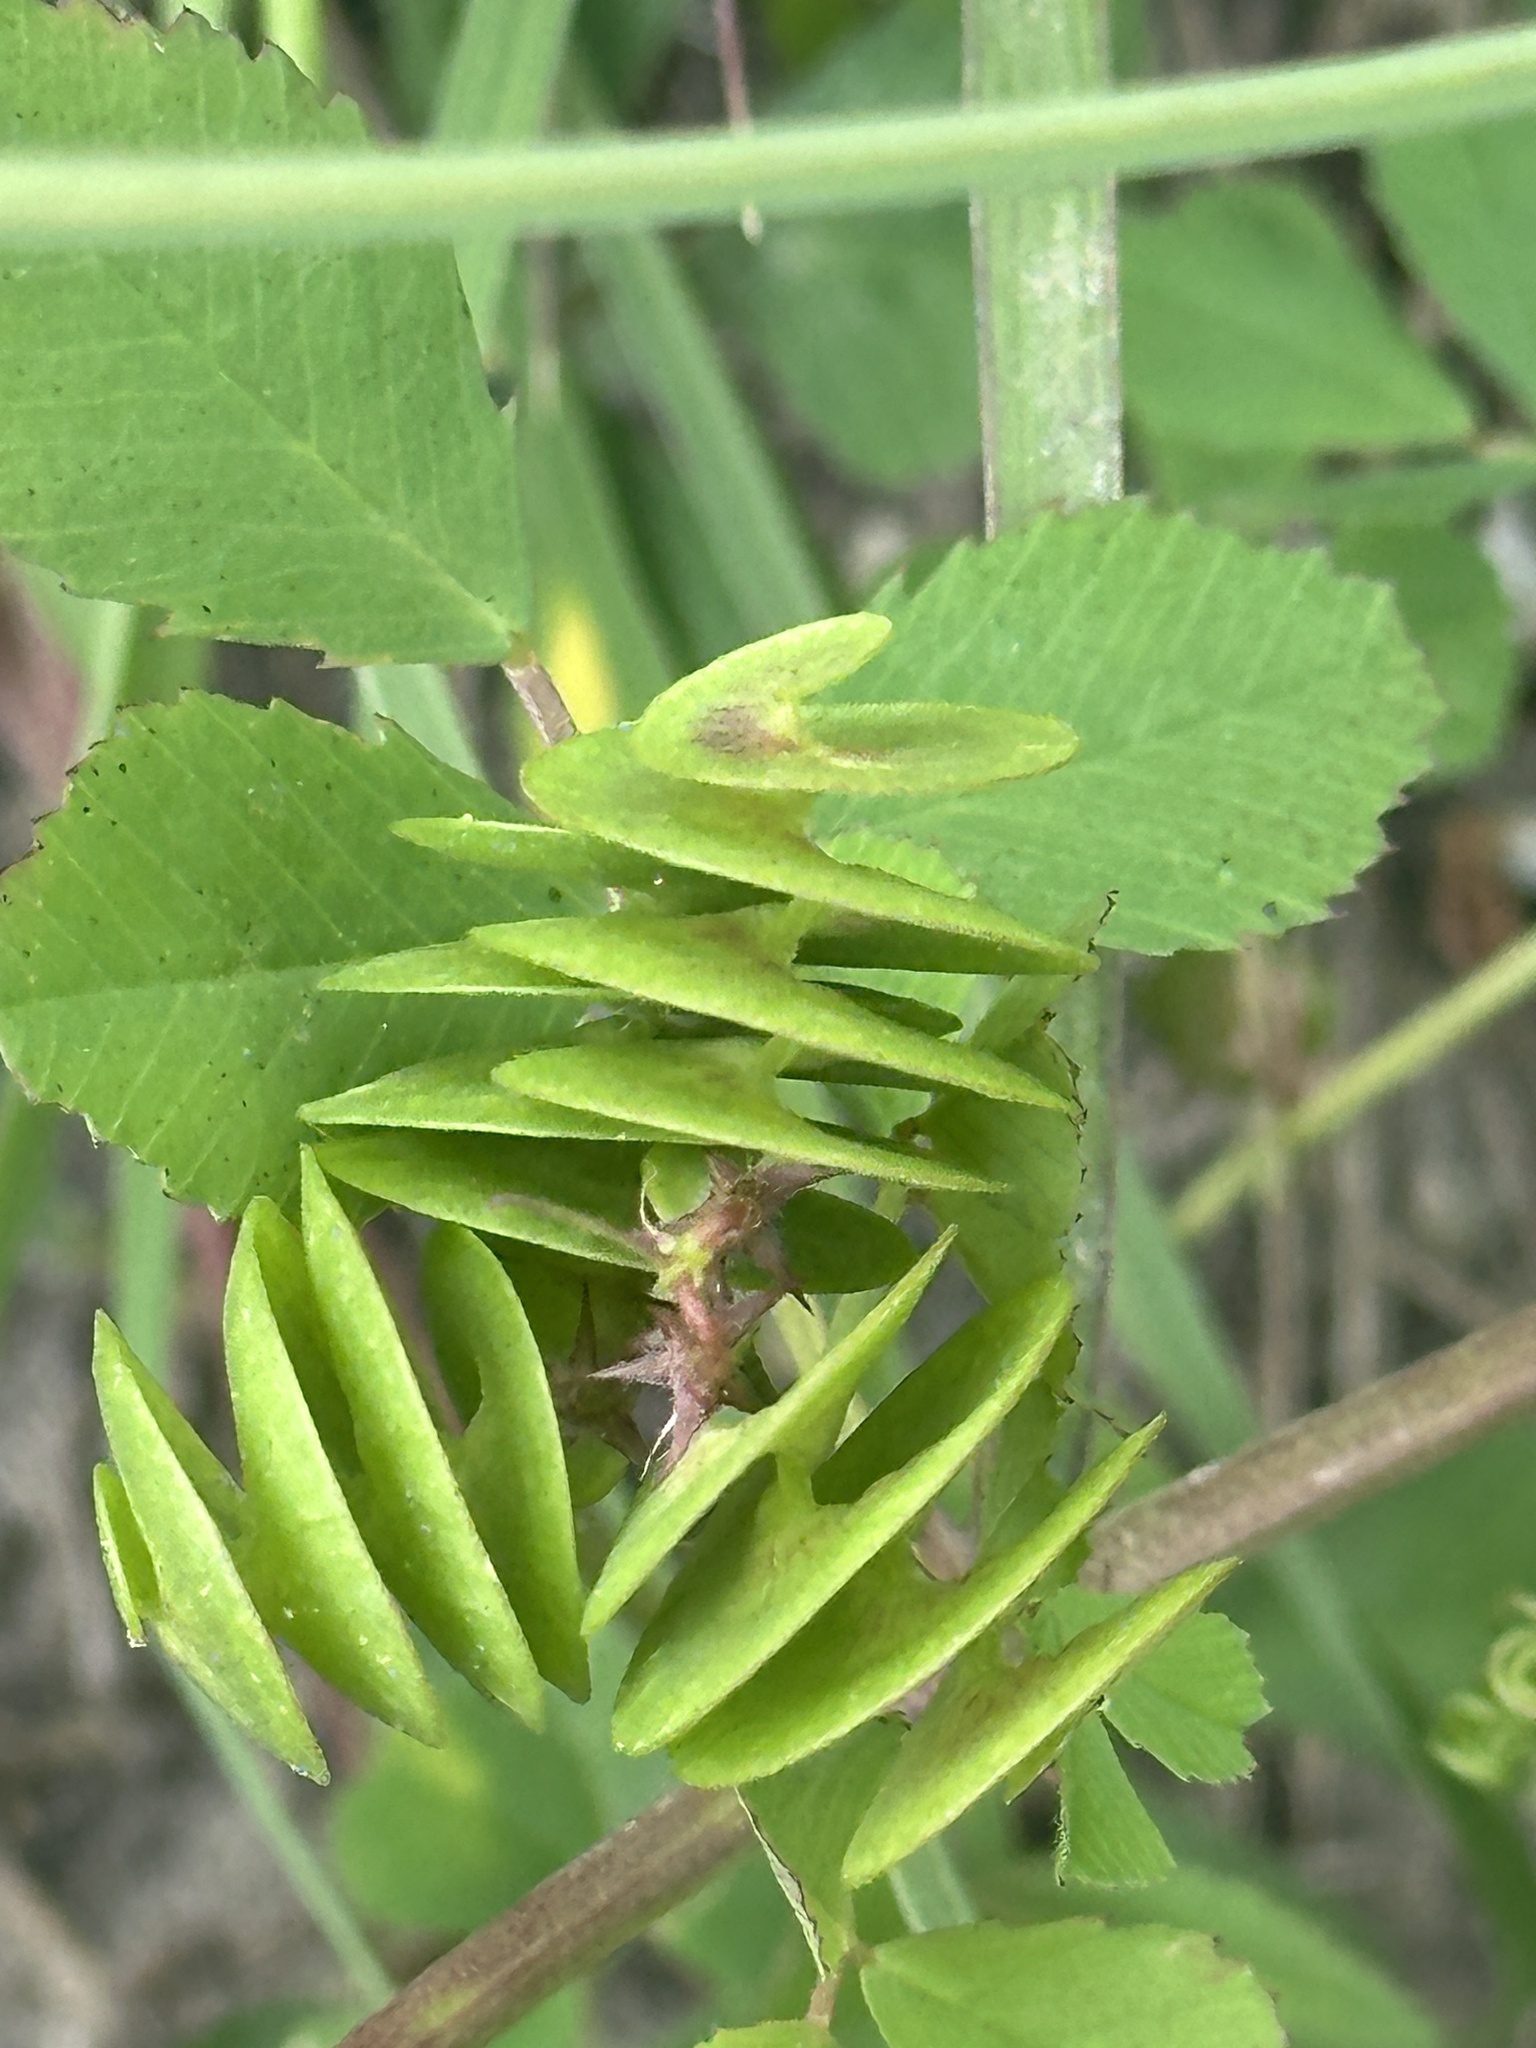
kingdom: Plantae
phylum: Tracheophyta
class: Magnoliopsida
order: Fabales
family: Fabaceae
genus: Medicago
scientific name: Medicago orbicularis
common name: Button medick
